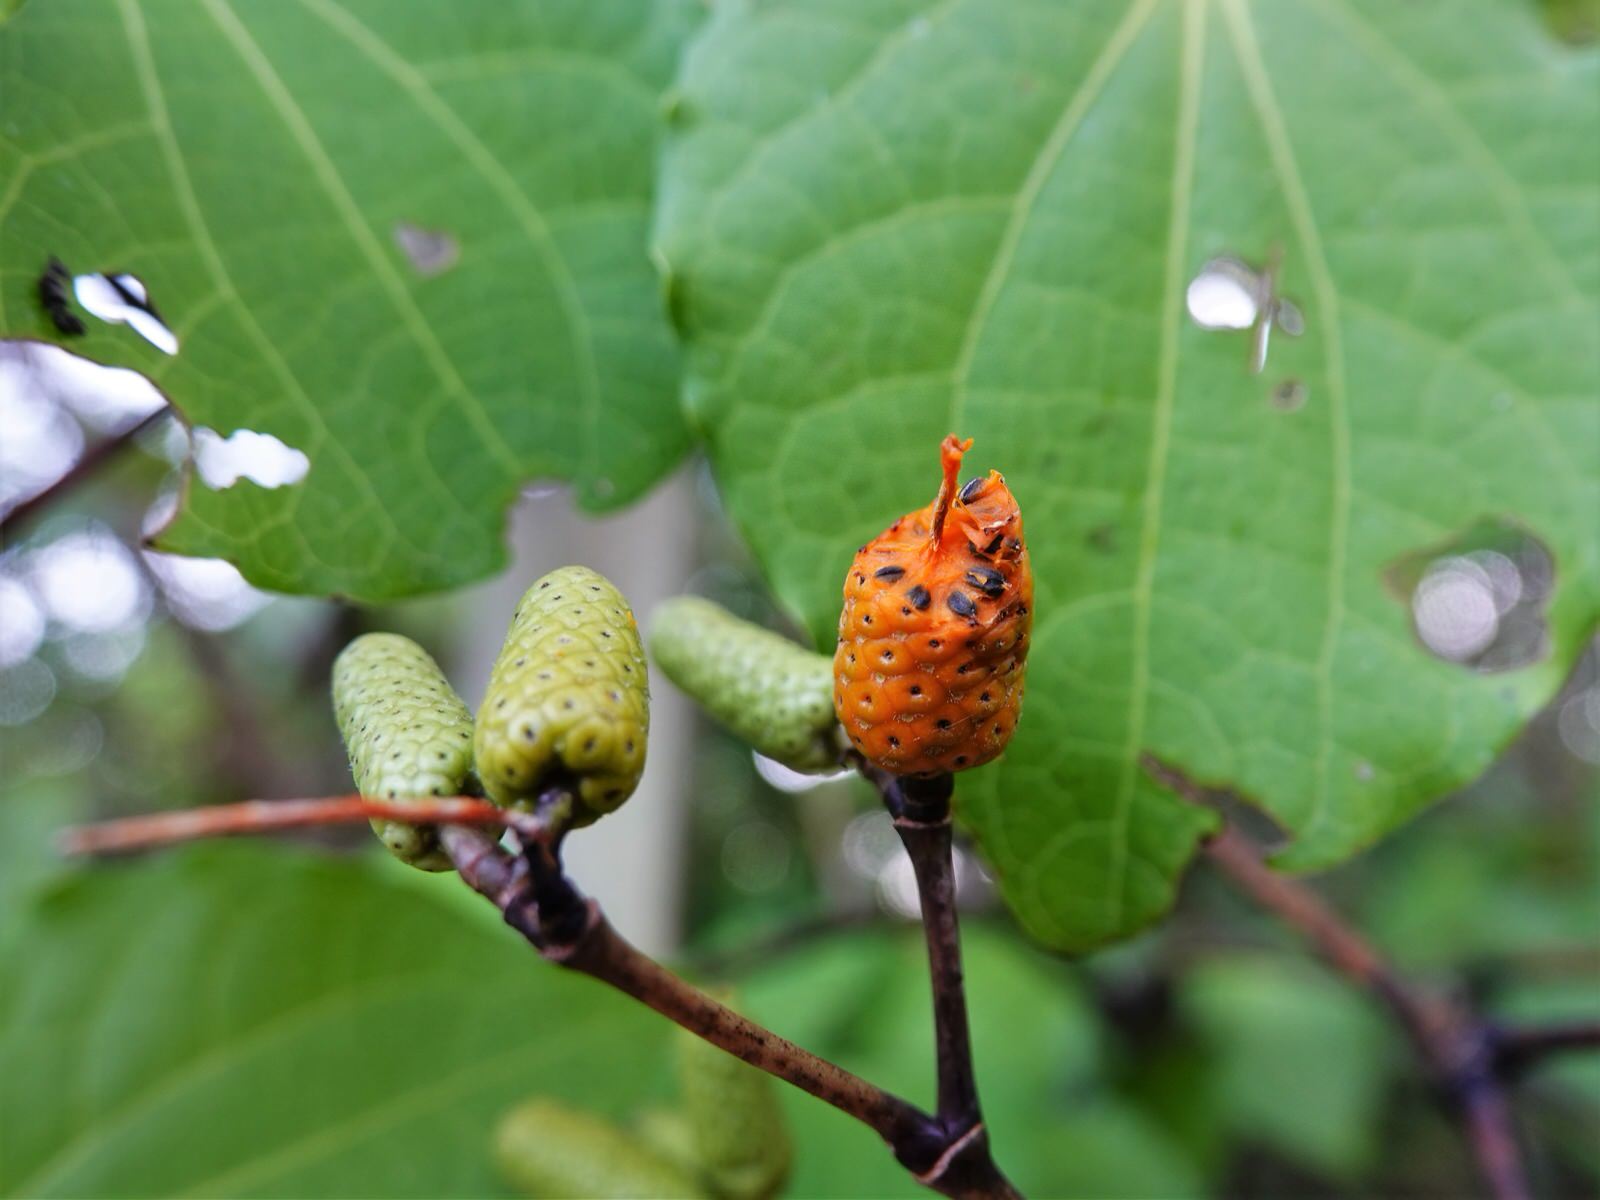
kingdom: Plantae
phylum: Tracheophyta
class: Magnoliopsida
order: Piperales
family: Piperaceae
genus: Macropiper
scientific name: Macropiper excelsum
